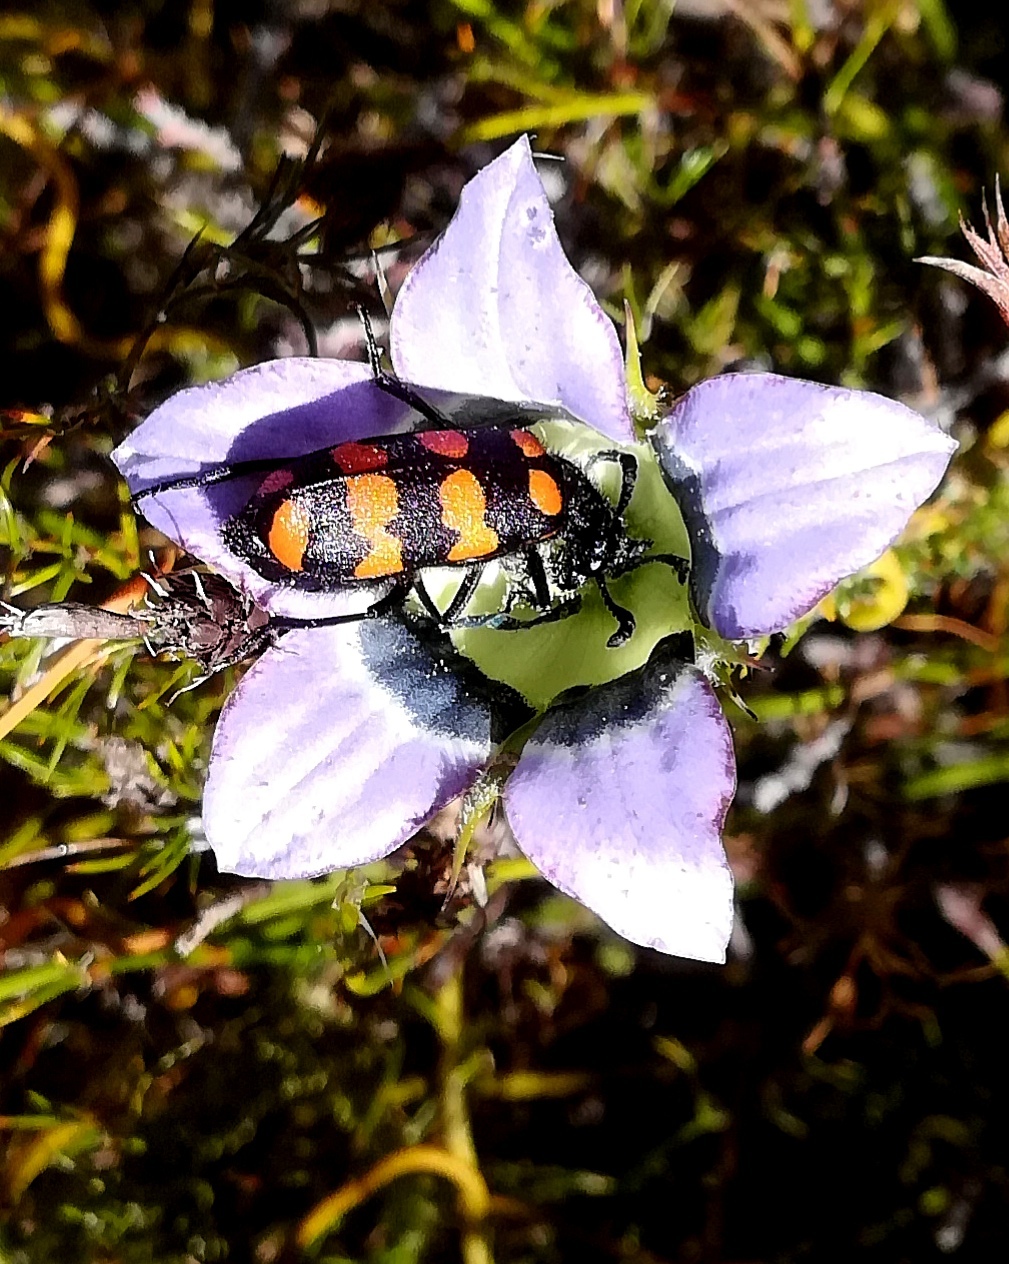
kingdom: Animalia
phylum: Arthropoda
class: Insecta
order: Coleoptera
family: Meloidae
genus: Ceroctis
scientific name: Ceroctis gyllenhalli
